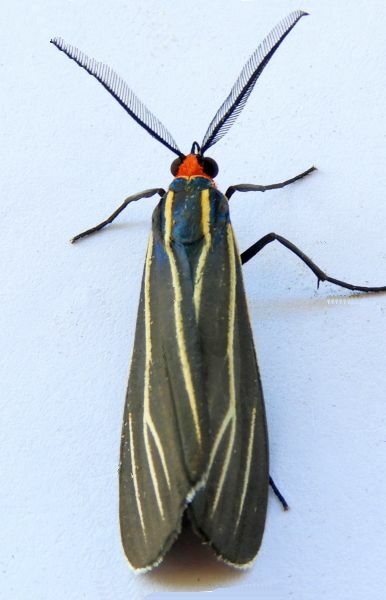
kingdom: Animalia
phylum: Arthropoda
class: Insecta
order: Lepidoptera
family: Erebidae
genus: Ctenucha
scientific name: Ctenucha venosa
